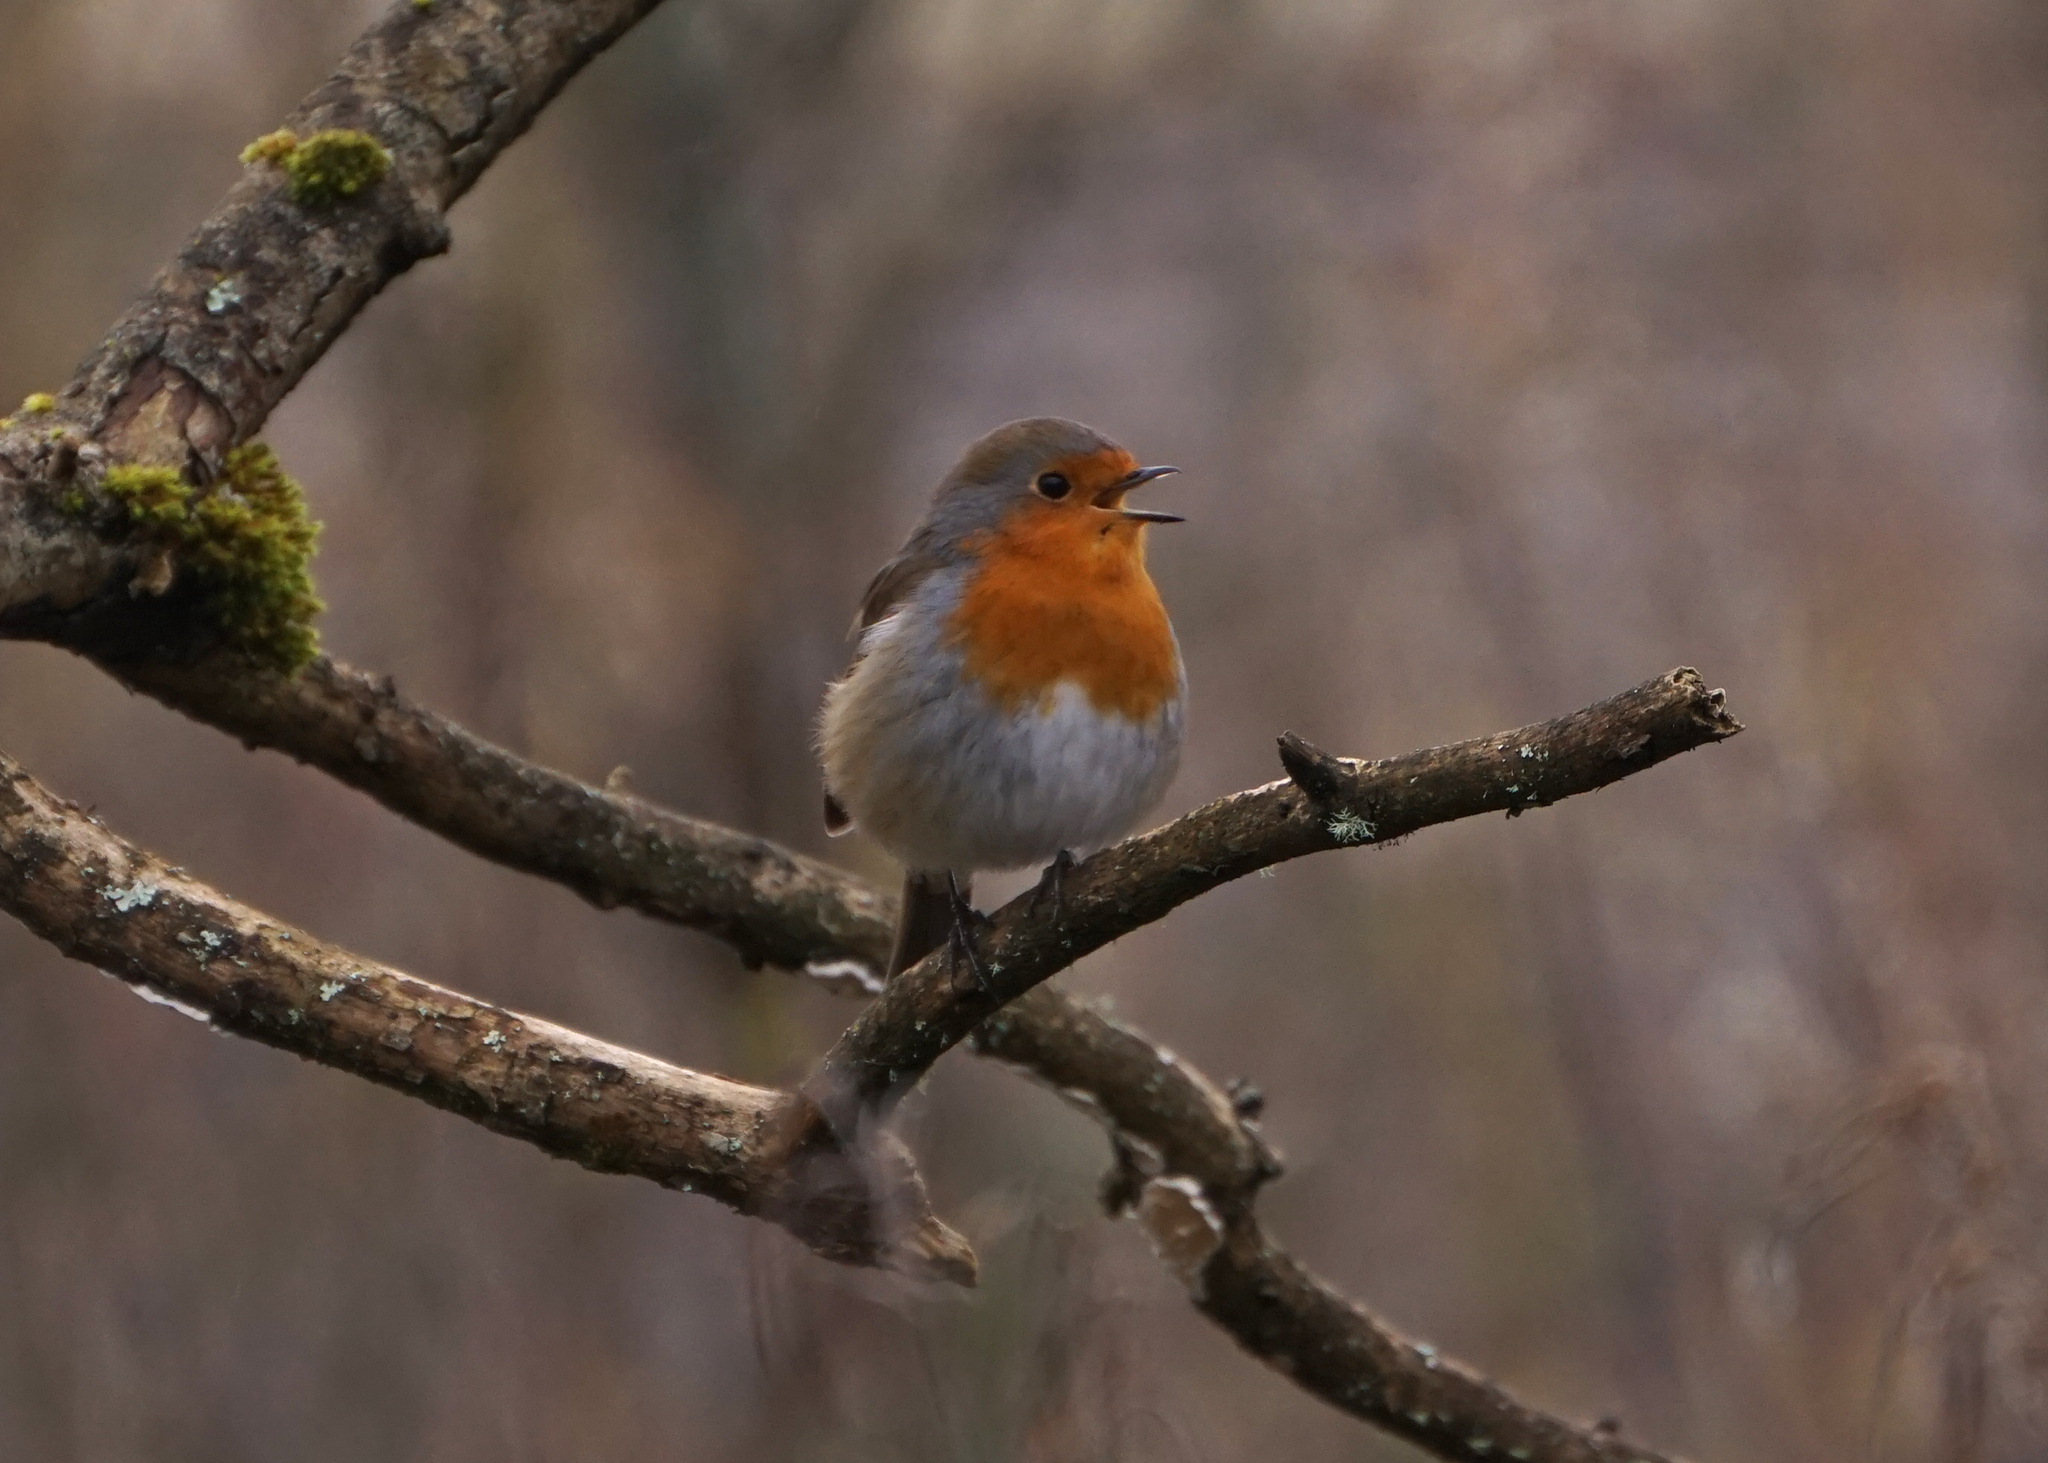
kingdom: Animalia
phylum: Chordata
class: Aves
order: Passeriformes
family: Muscicapidae
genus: Erithacus
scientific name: Erithacus rubecula
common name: European robin
